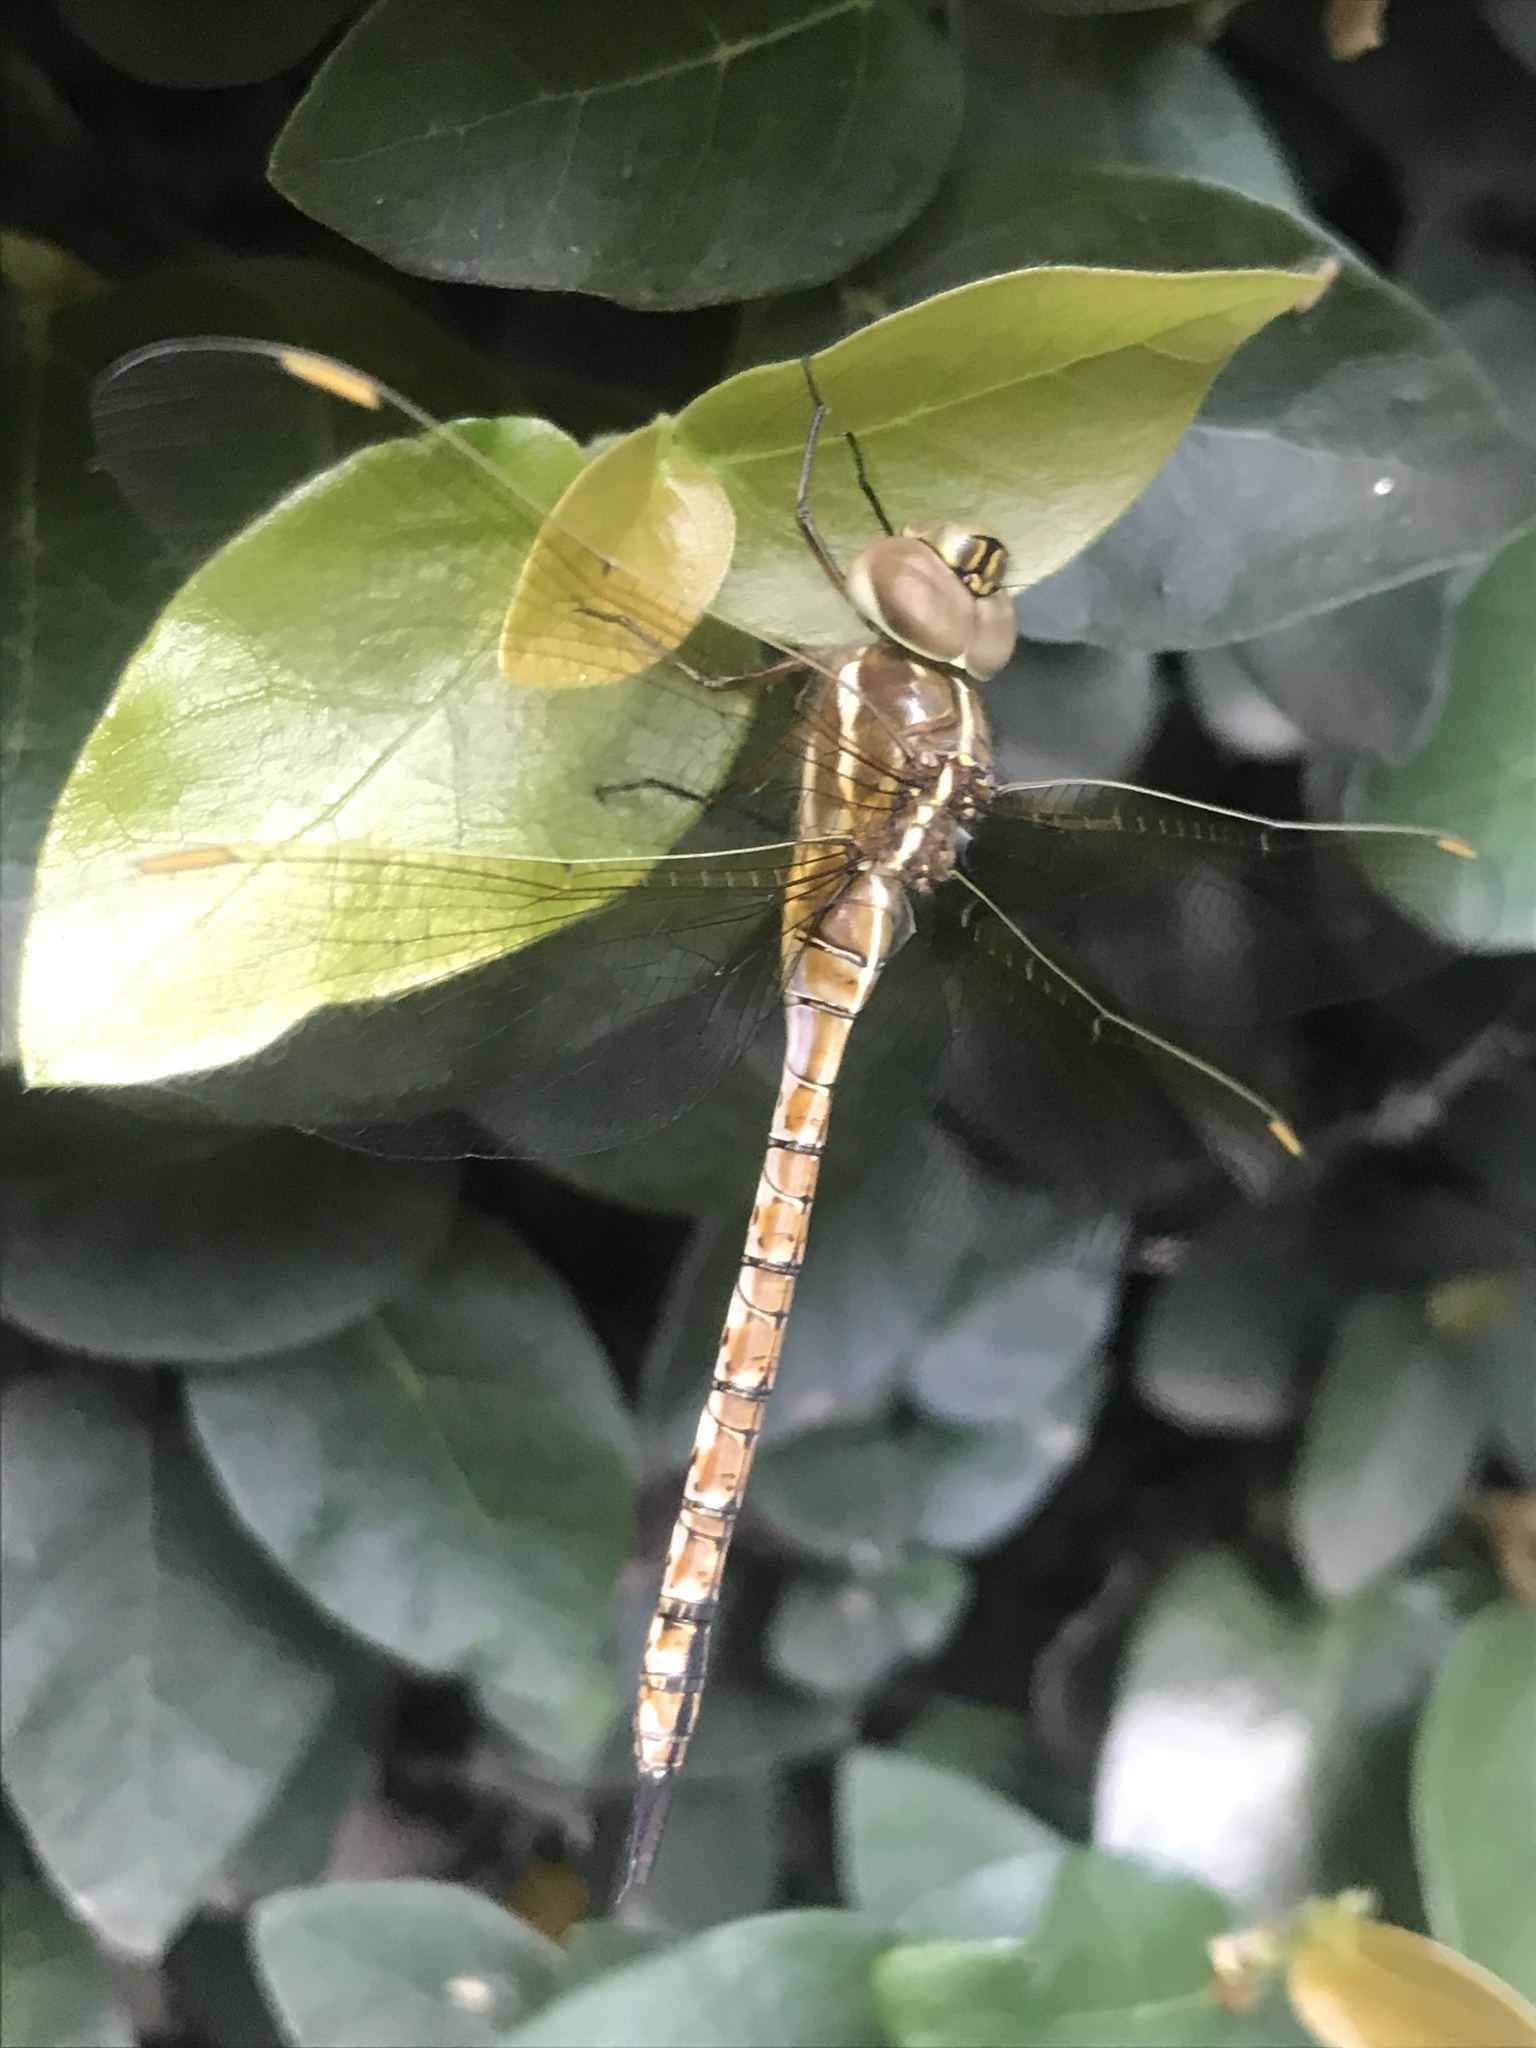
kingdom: Animalia
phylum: Arthropoda
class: Insecta
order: Odonata
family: Aeshnidae
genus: Rhionaeschna
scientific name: Rhionaeschna bonariensis
